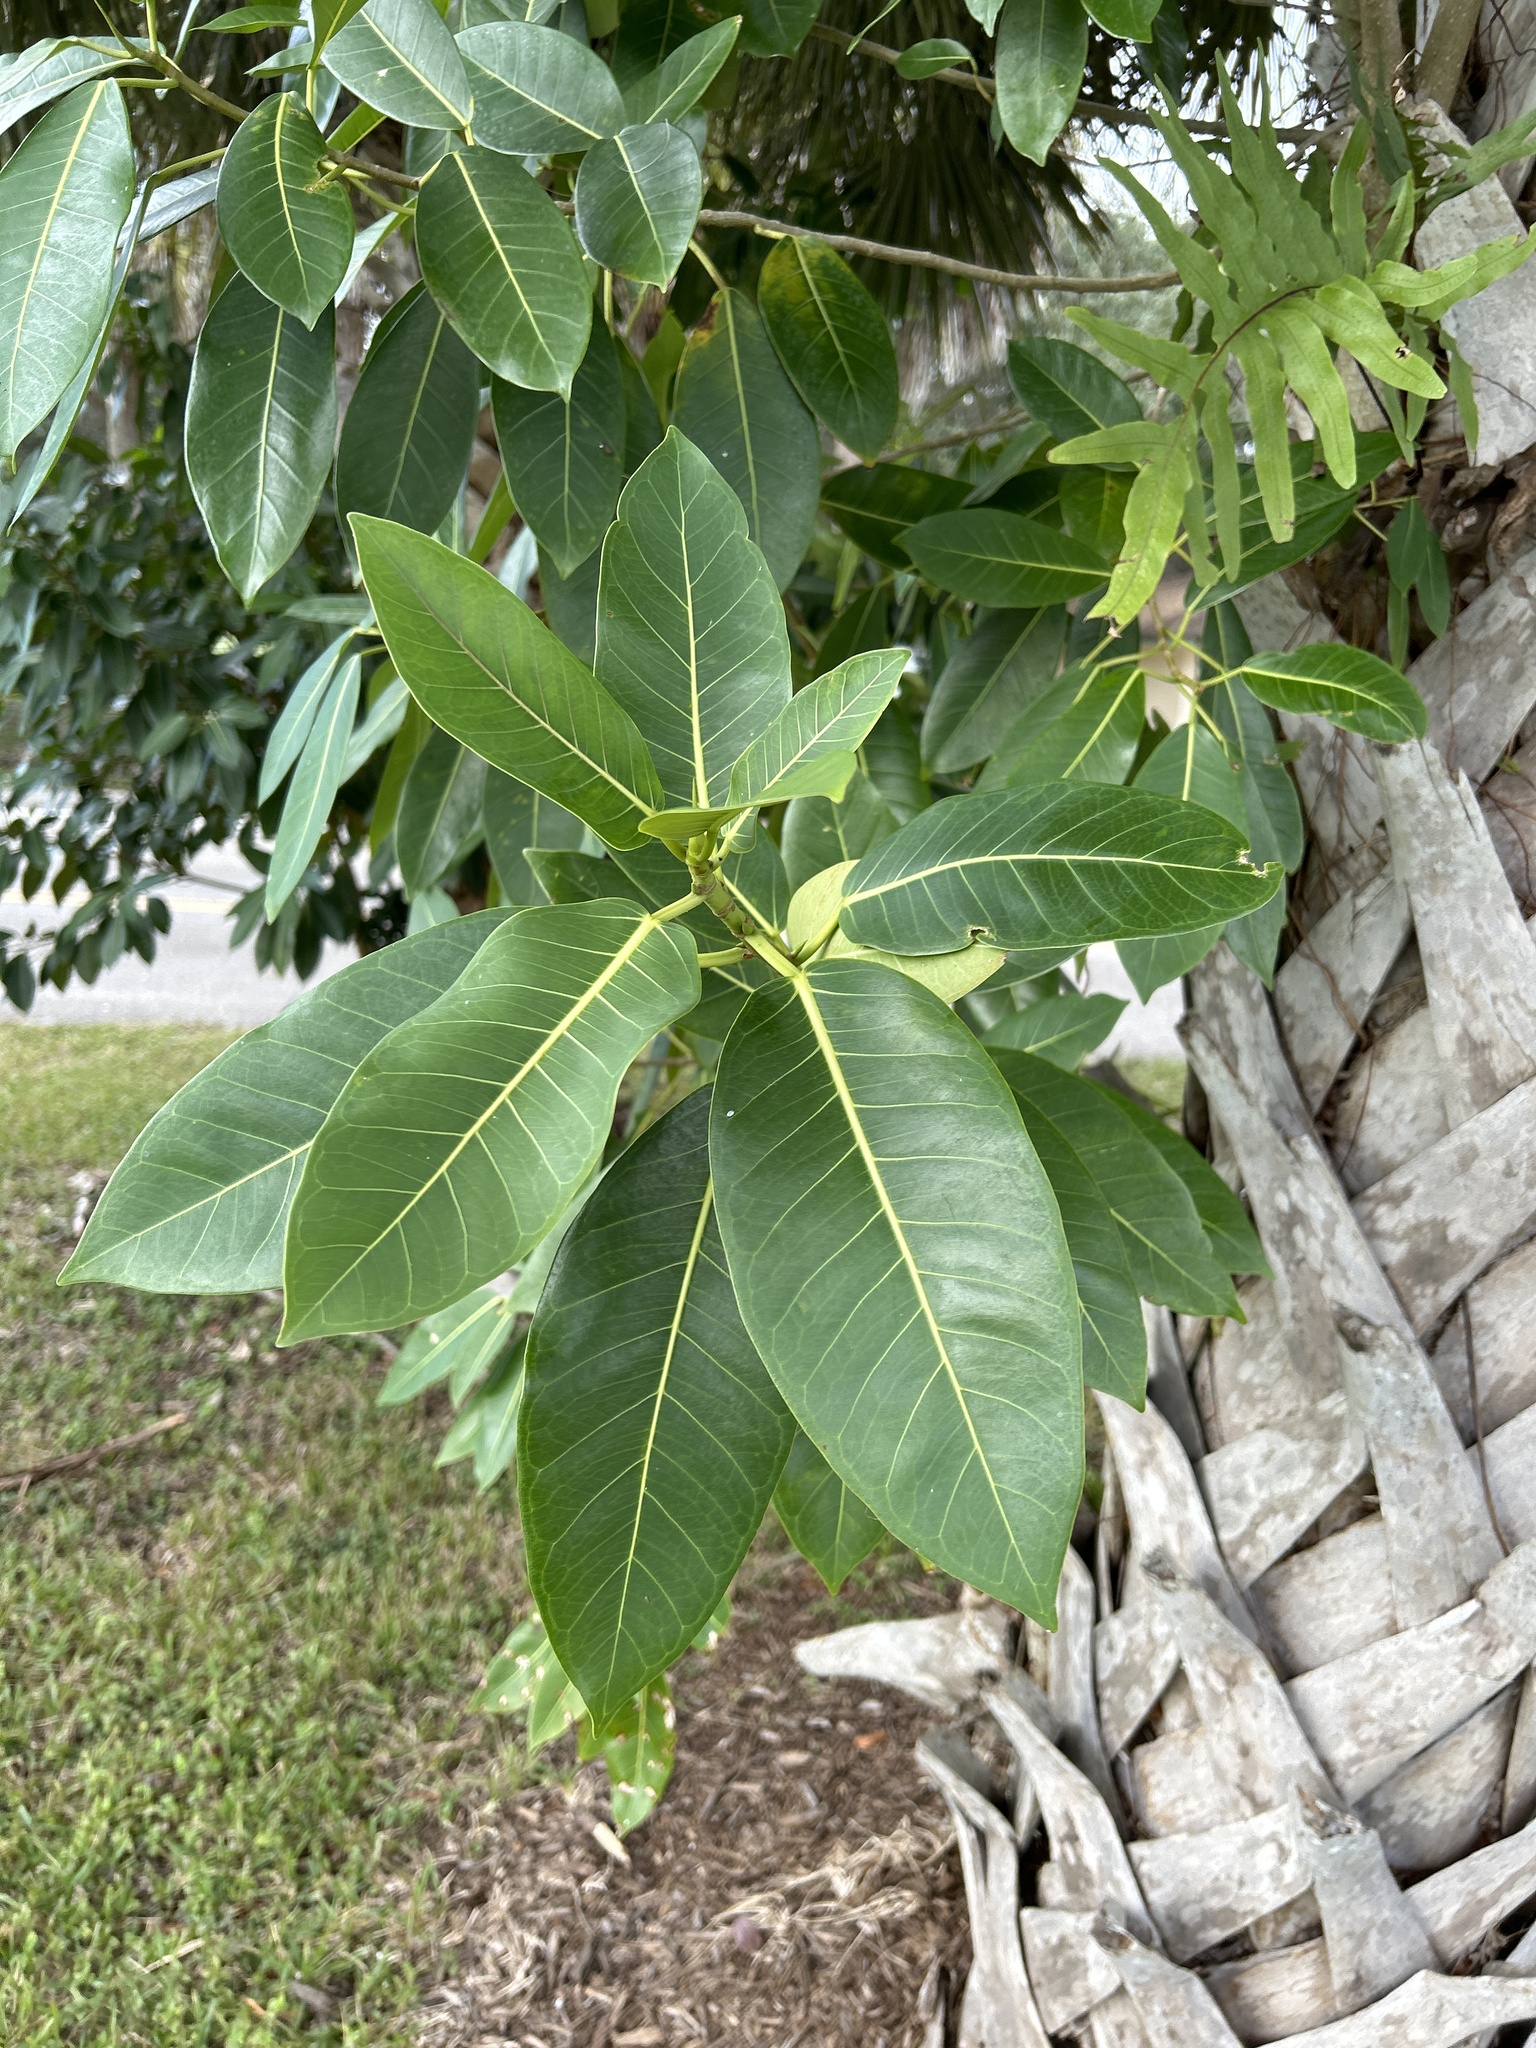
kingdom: Plantae
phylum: Tracheophyta
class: Magnoliopsida
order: Rosales
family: Moraceae
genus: Ficus
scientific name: Ficus aurea
